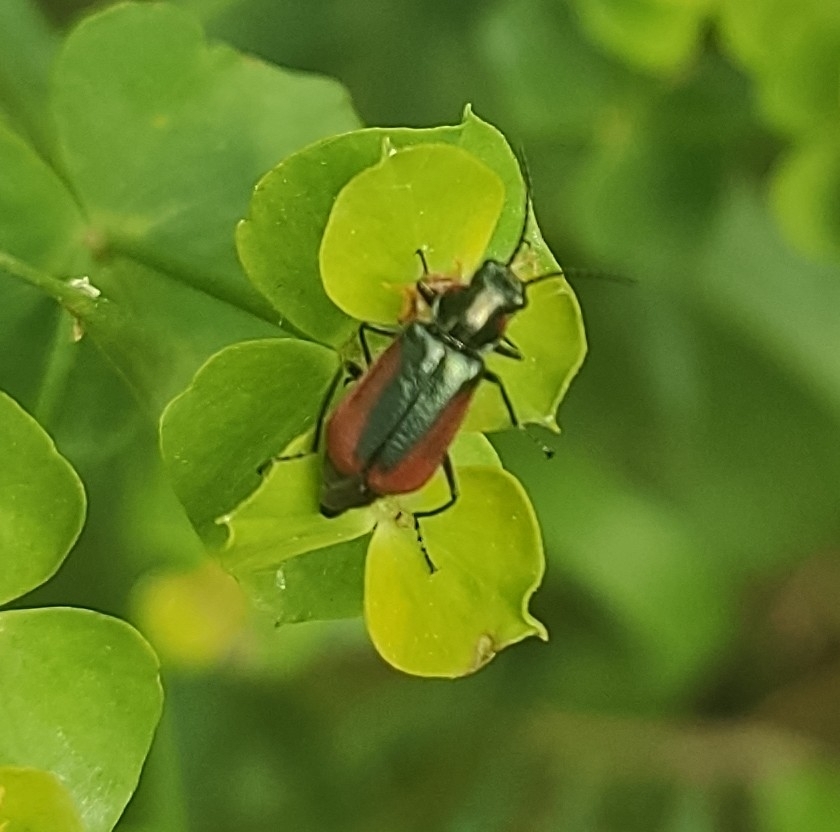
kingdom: Animalia
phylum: Arthropoda
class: Insecta
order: Coleoptera
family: Melyridae
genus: Malachius
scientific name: Malachius aeneus
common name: Scarlet malachite beetle
